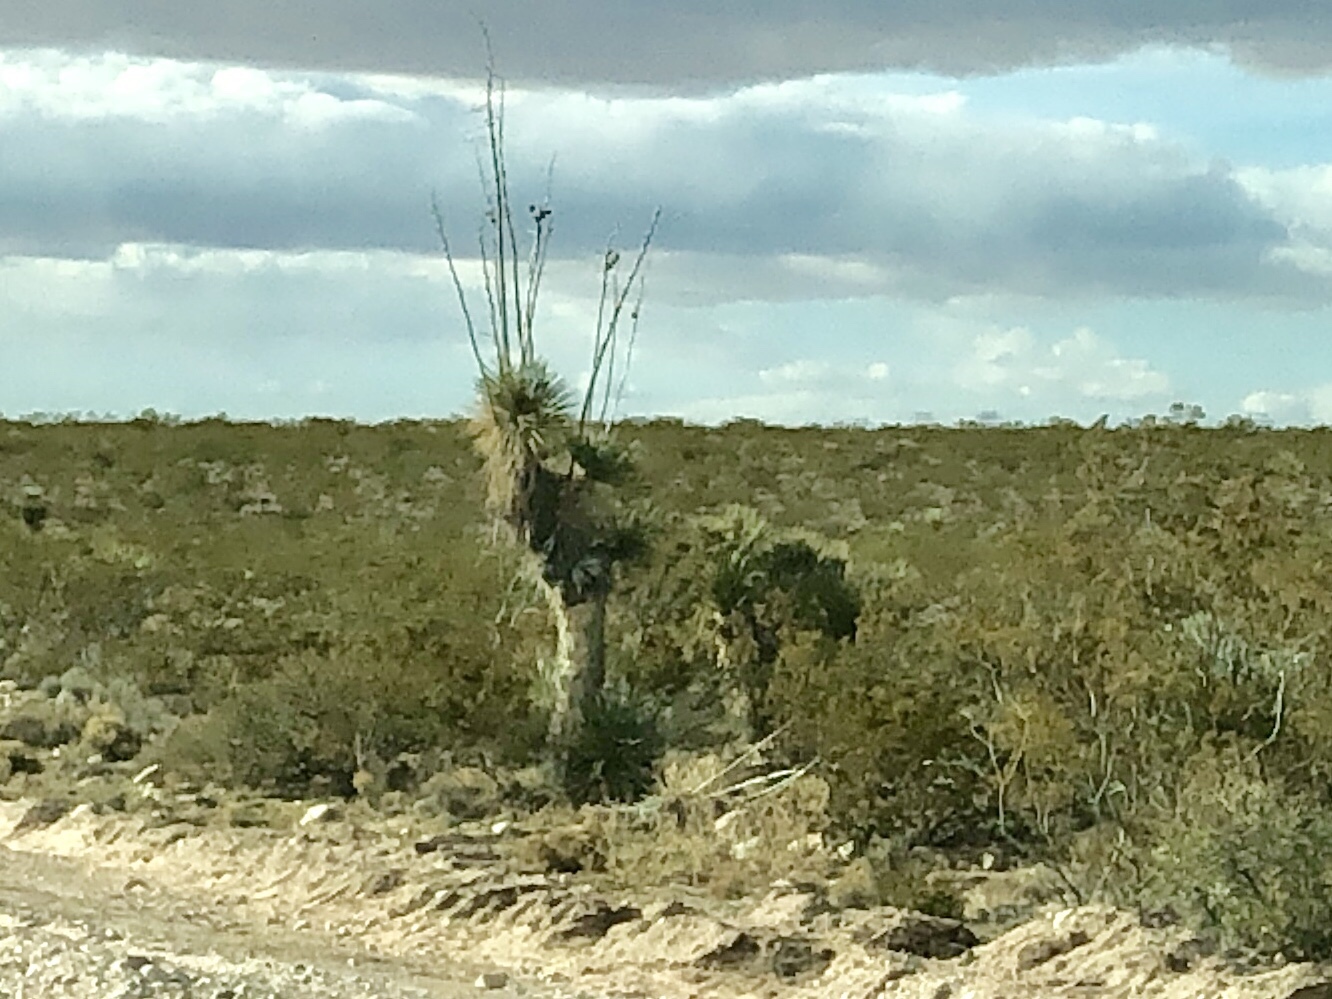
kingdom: Plantae
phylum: Tracheophyta
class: Liliopsida
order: Asparagales
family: Asparagaceae
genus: Yucca
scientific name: Yucca elata
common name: Palmella
